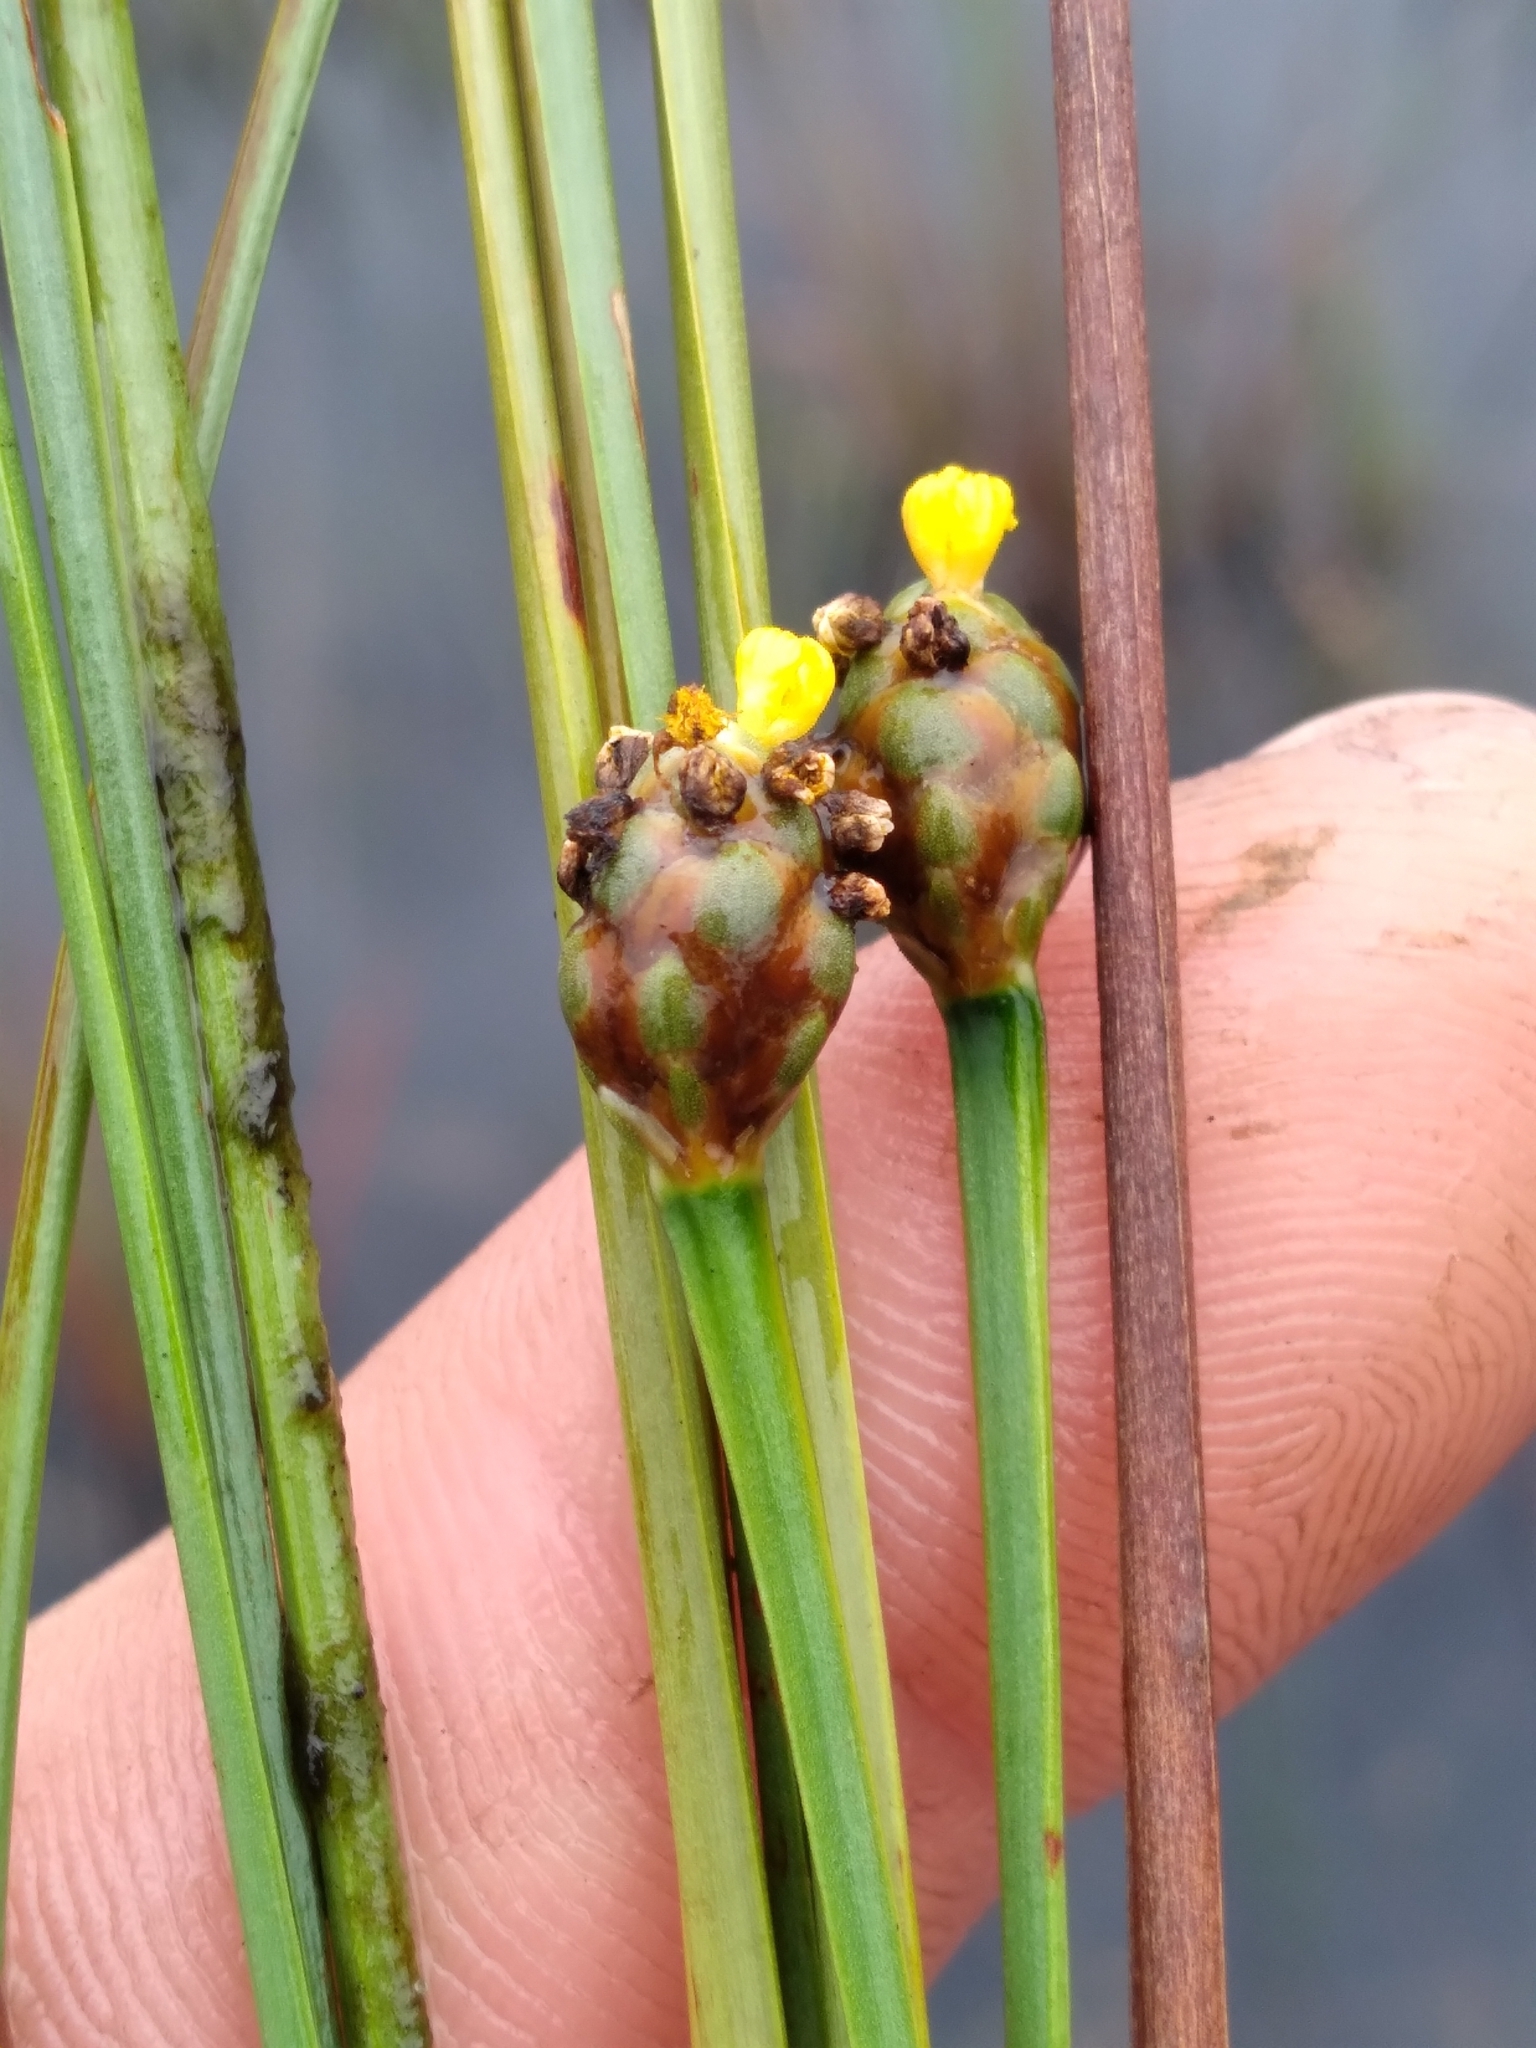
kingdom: Plantae
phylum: Tracheophyta
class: Liliopsida
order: Poales
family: Xyridaceae
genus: Xyris
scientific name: Xyris jupicai
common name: Richard's yelloweyed grass
